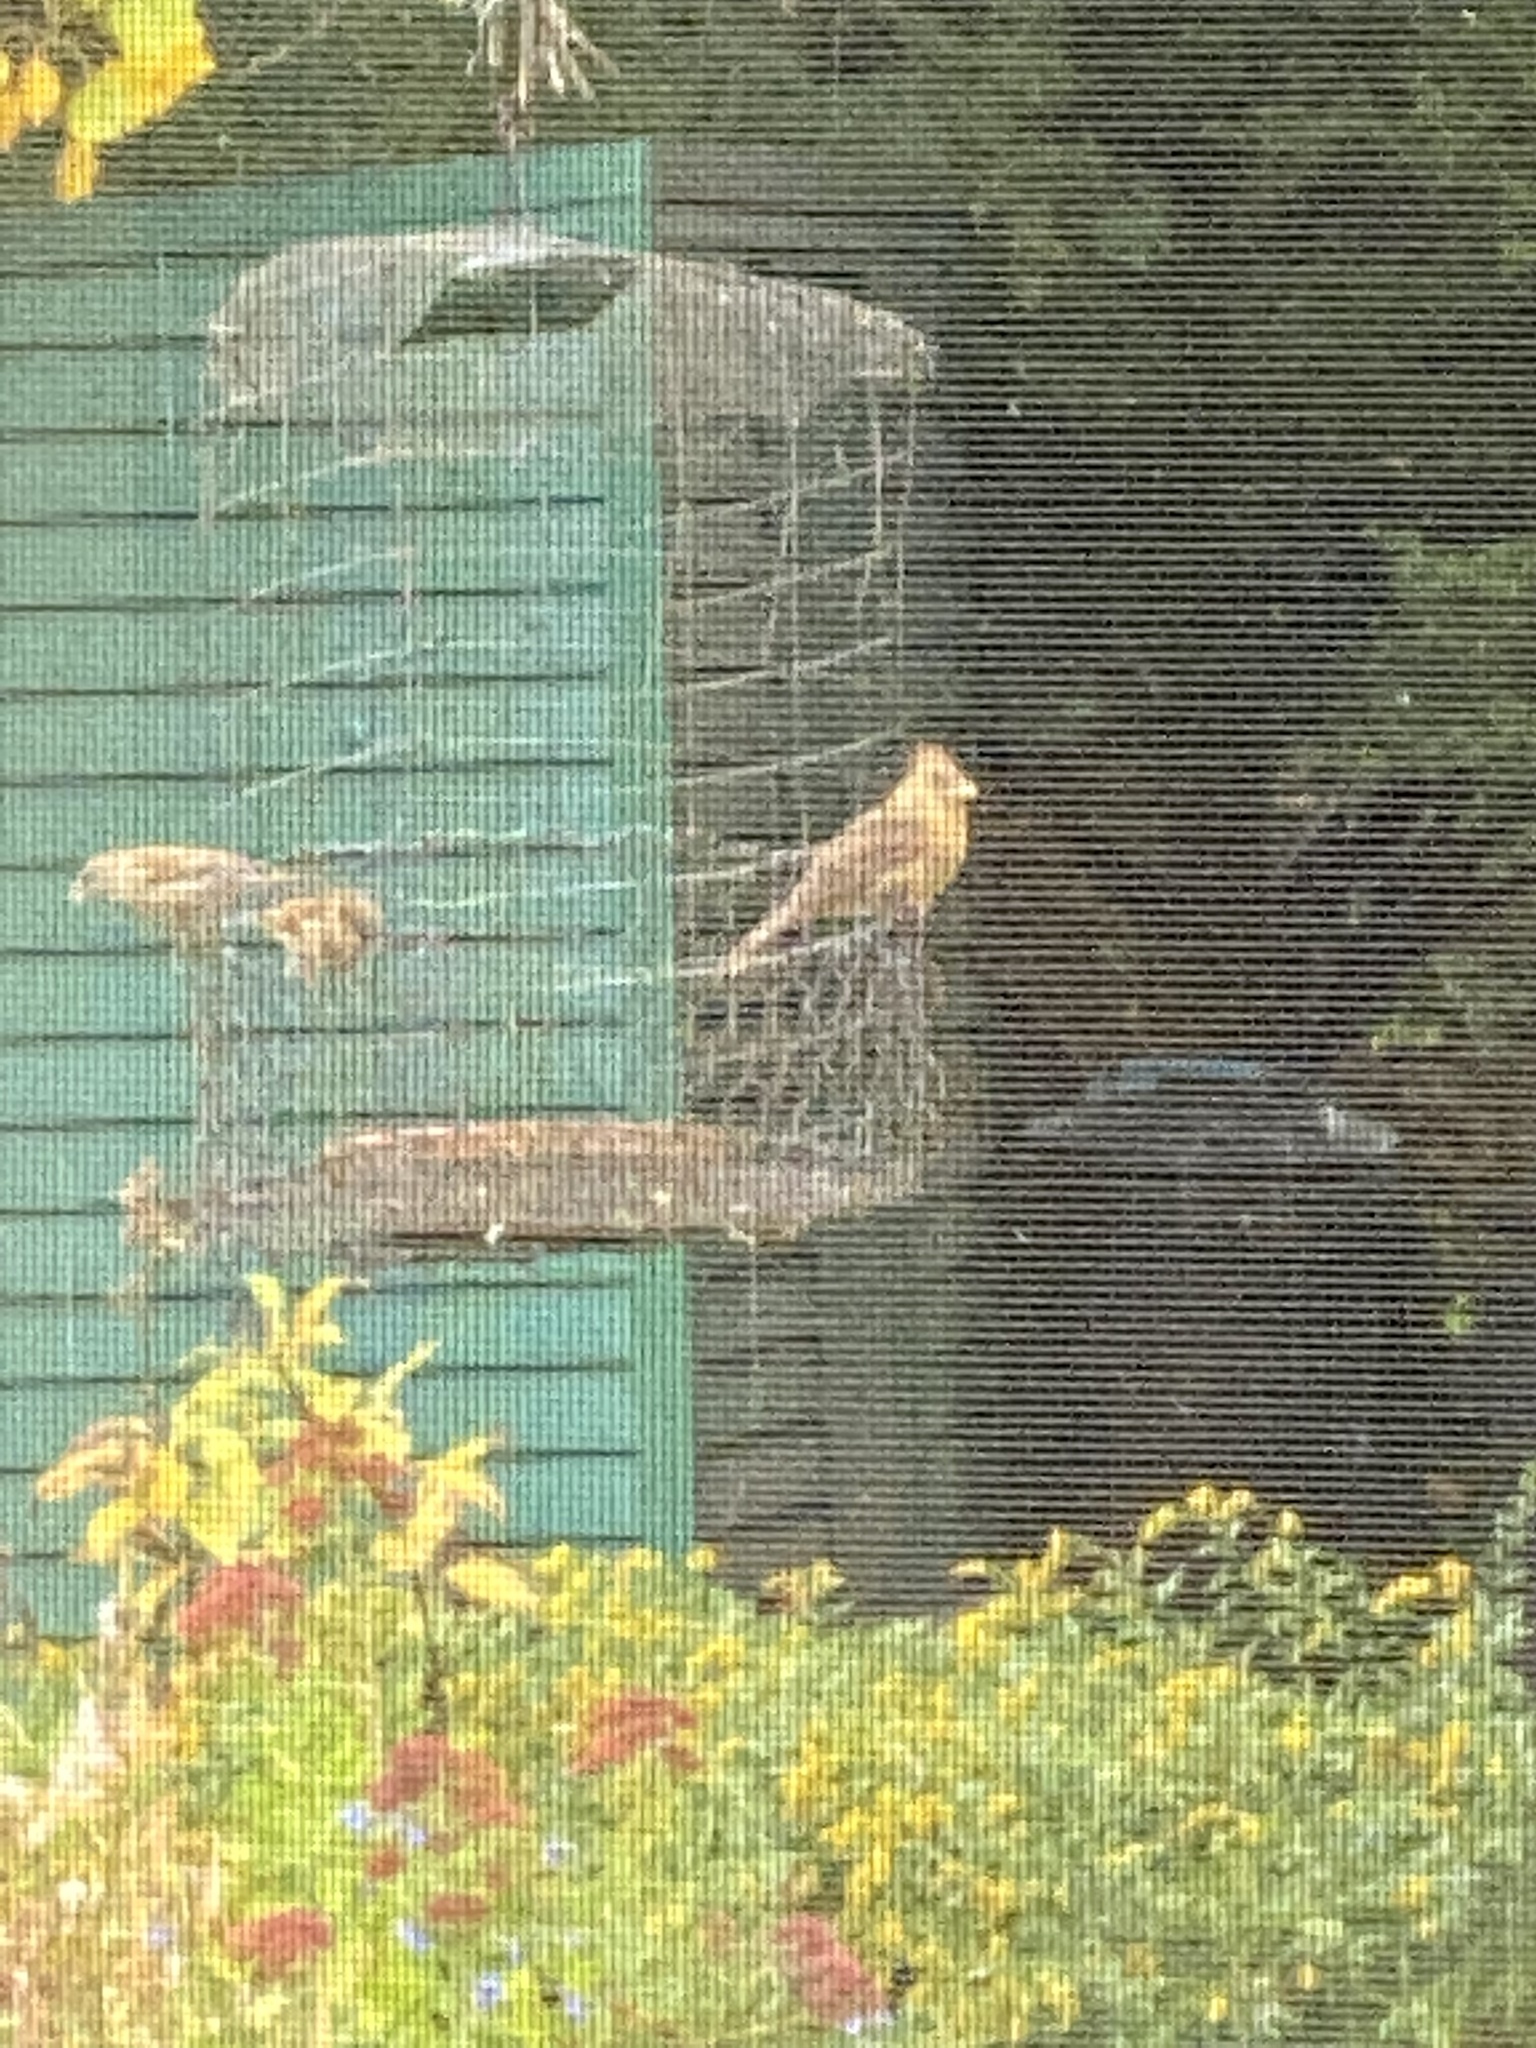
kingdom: Animalia
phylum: Chordata
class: Aves
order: Passeriformes
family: Cardinalidae
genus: Cardinalis
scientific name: Cardinalis cardinalis
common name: Northern cardinal
